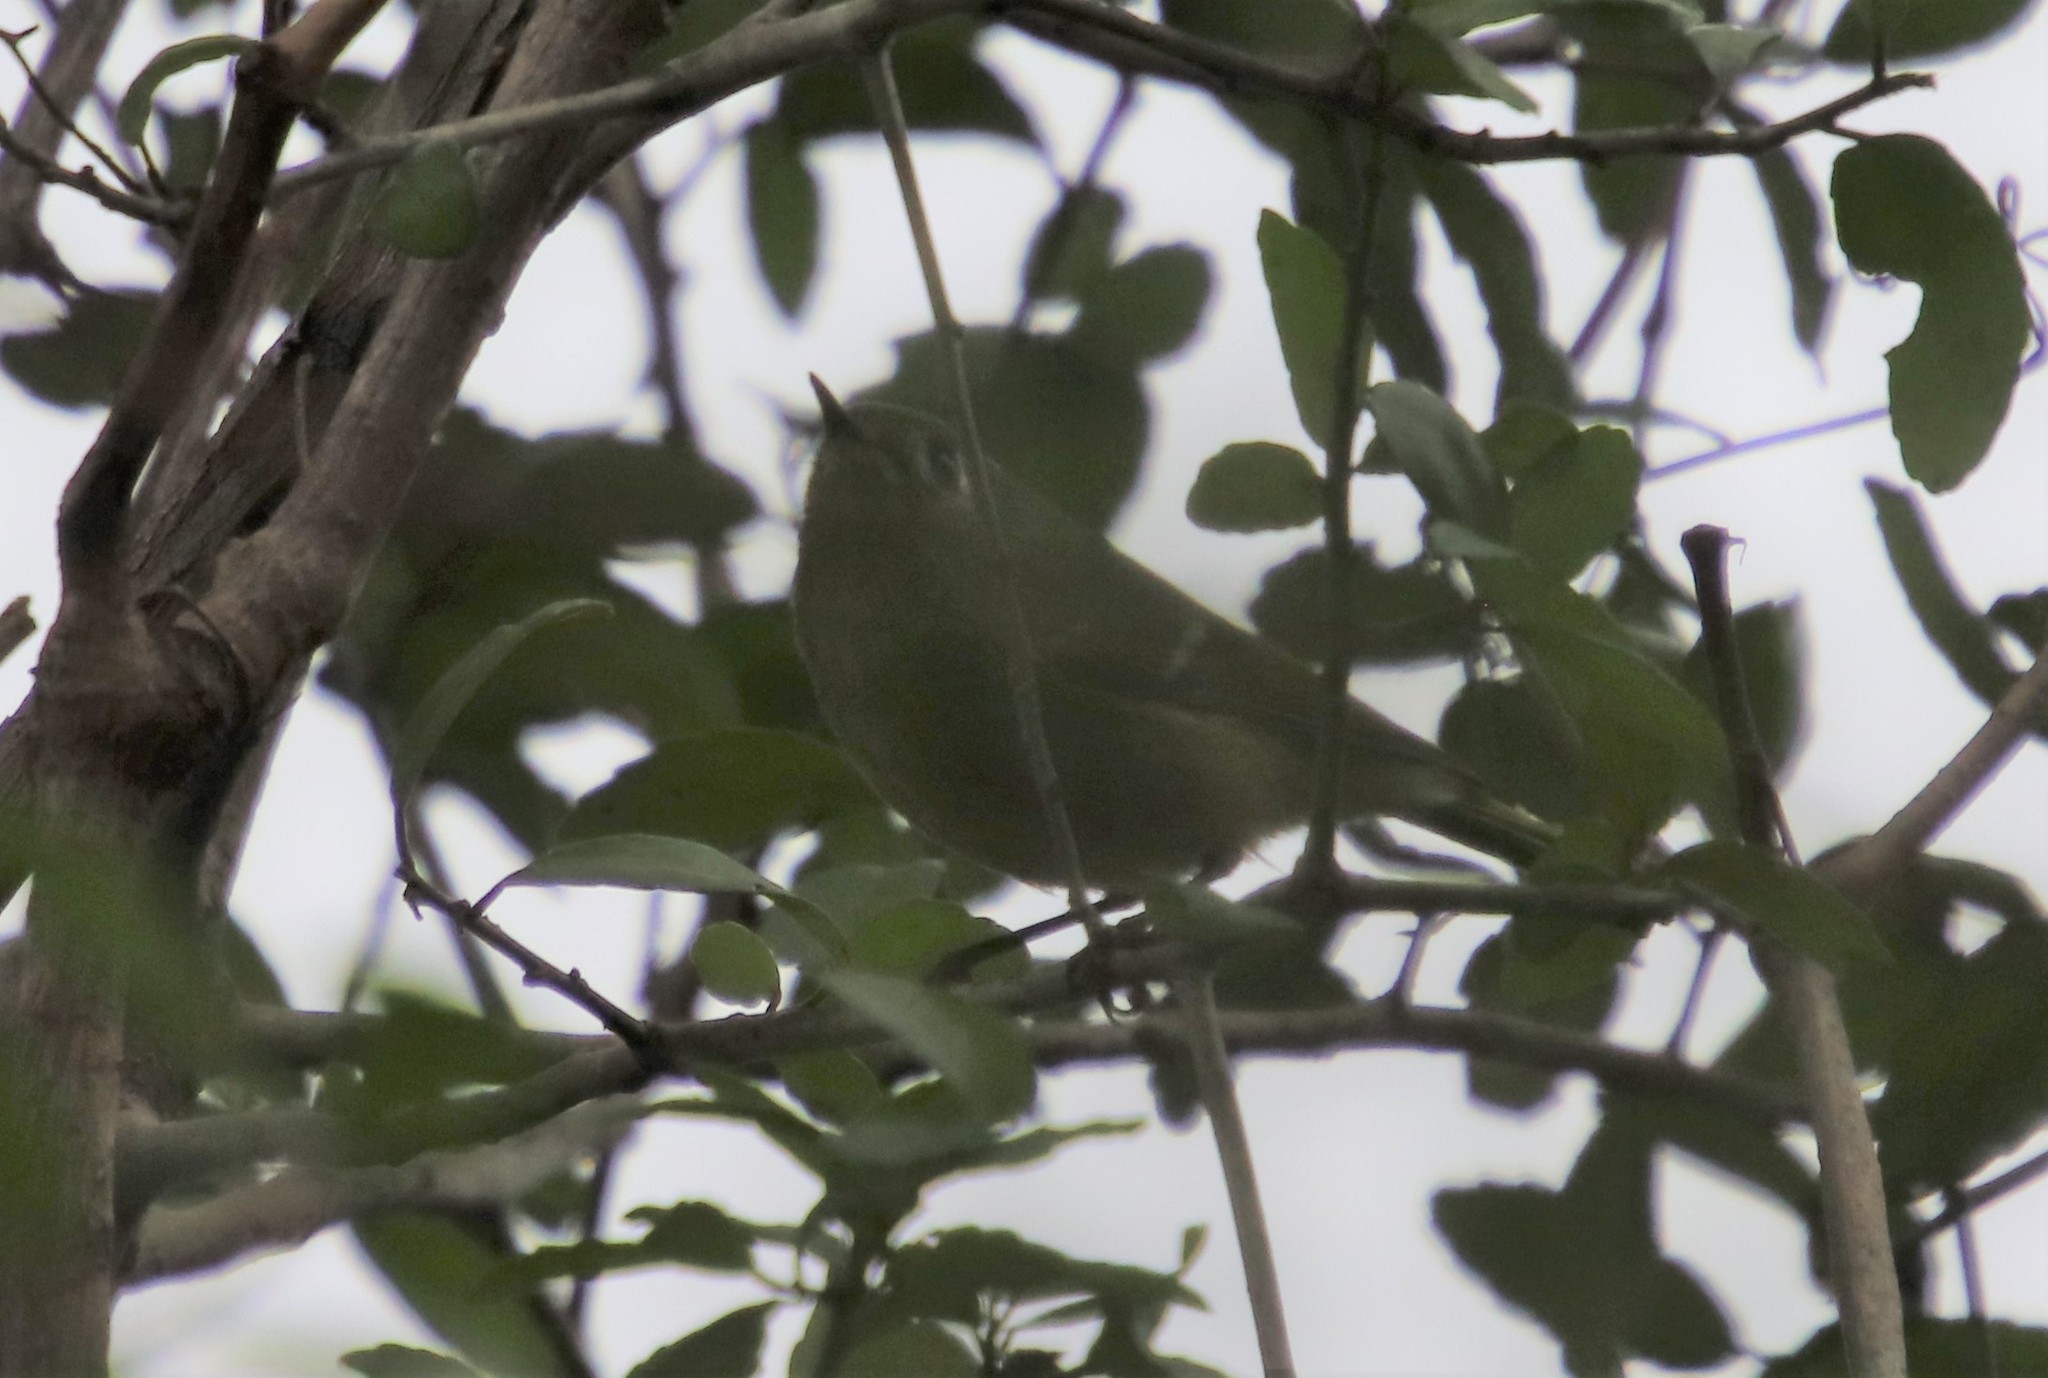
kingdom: Animalia
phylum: Chordata
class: Aves
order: Passeriformes
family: Regulidae
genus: Regulus
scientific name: Regulus calendula
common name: Ruby-crowned kinglet
